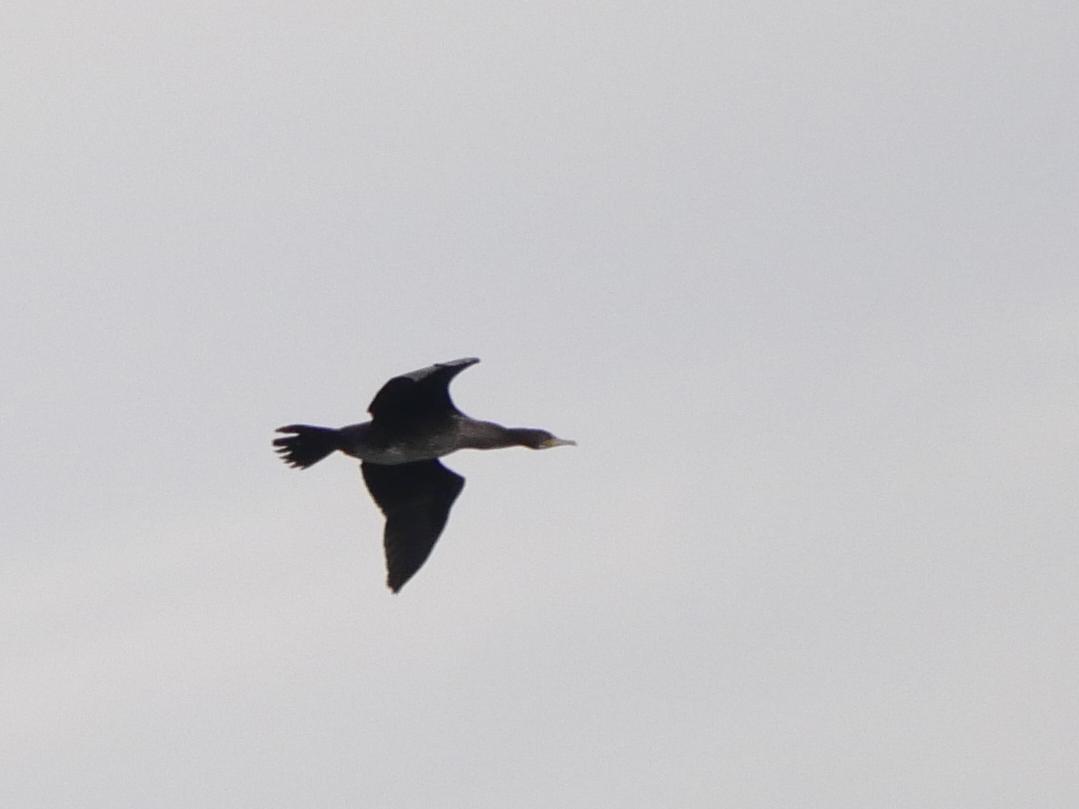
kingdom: Animalia
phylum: Chordata
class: Aves
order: Suliformes
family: Phalacrocoracidae
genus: Phalacrocorax
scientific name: Phalacrocorax carbo
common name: Great cormorant
